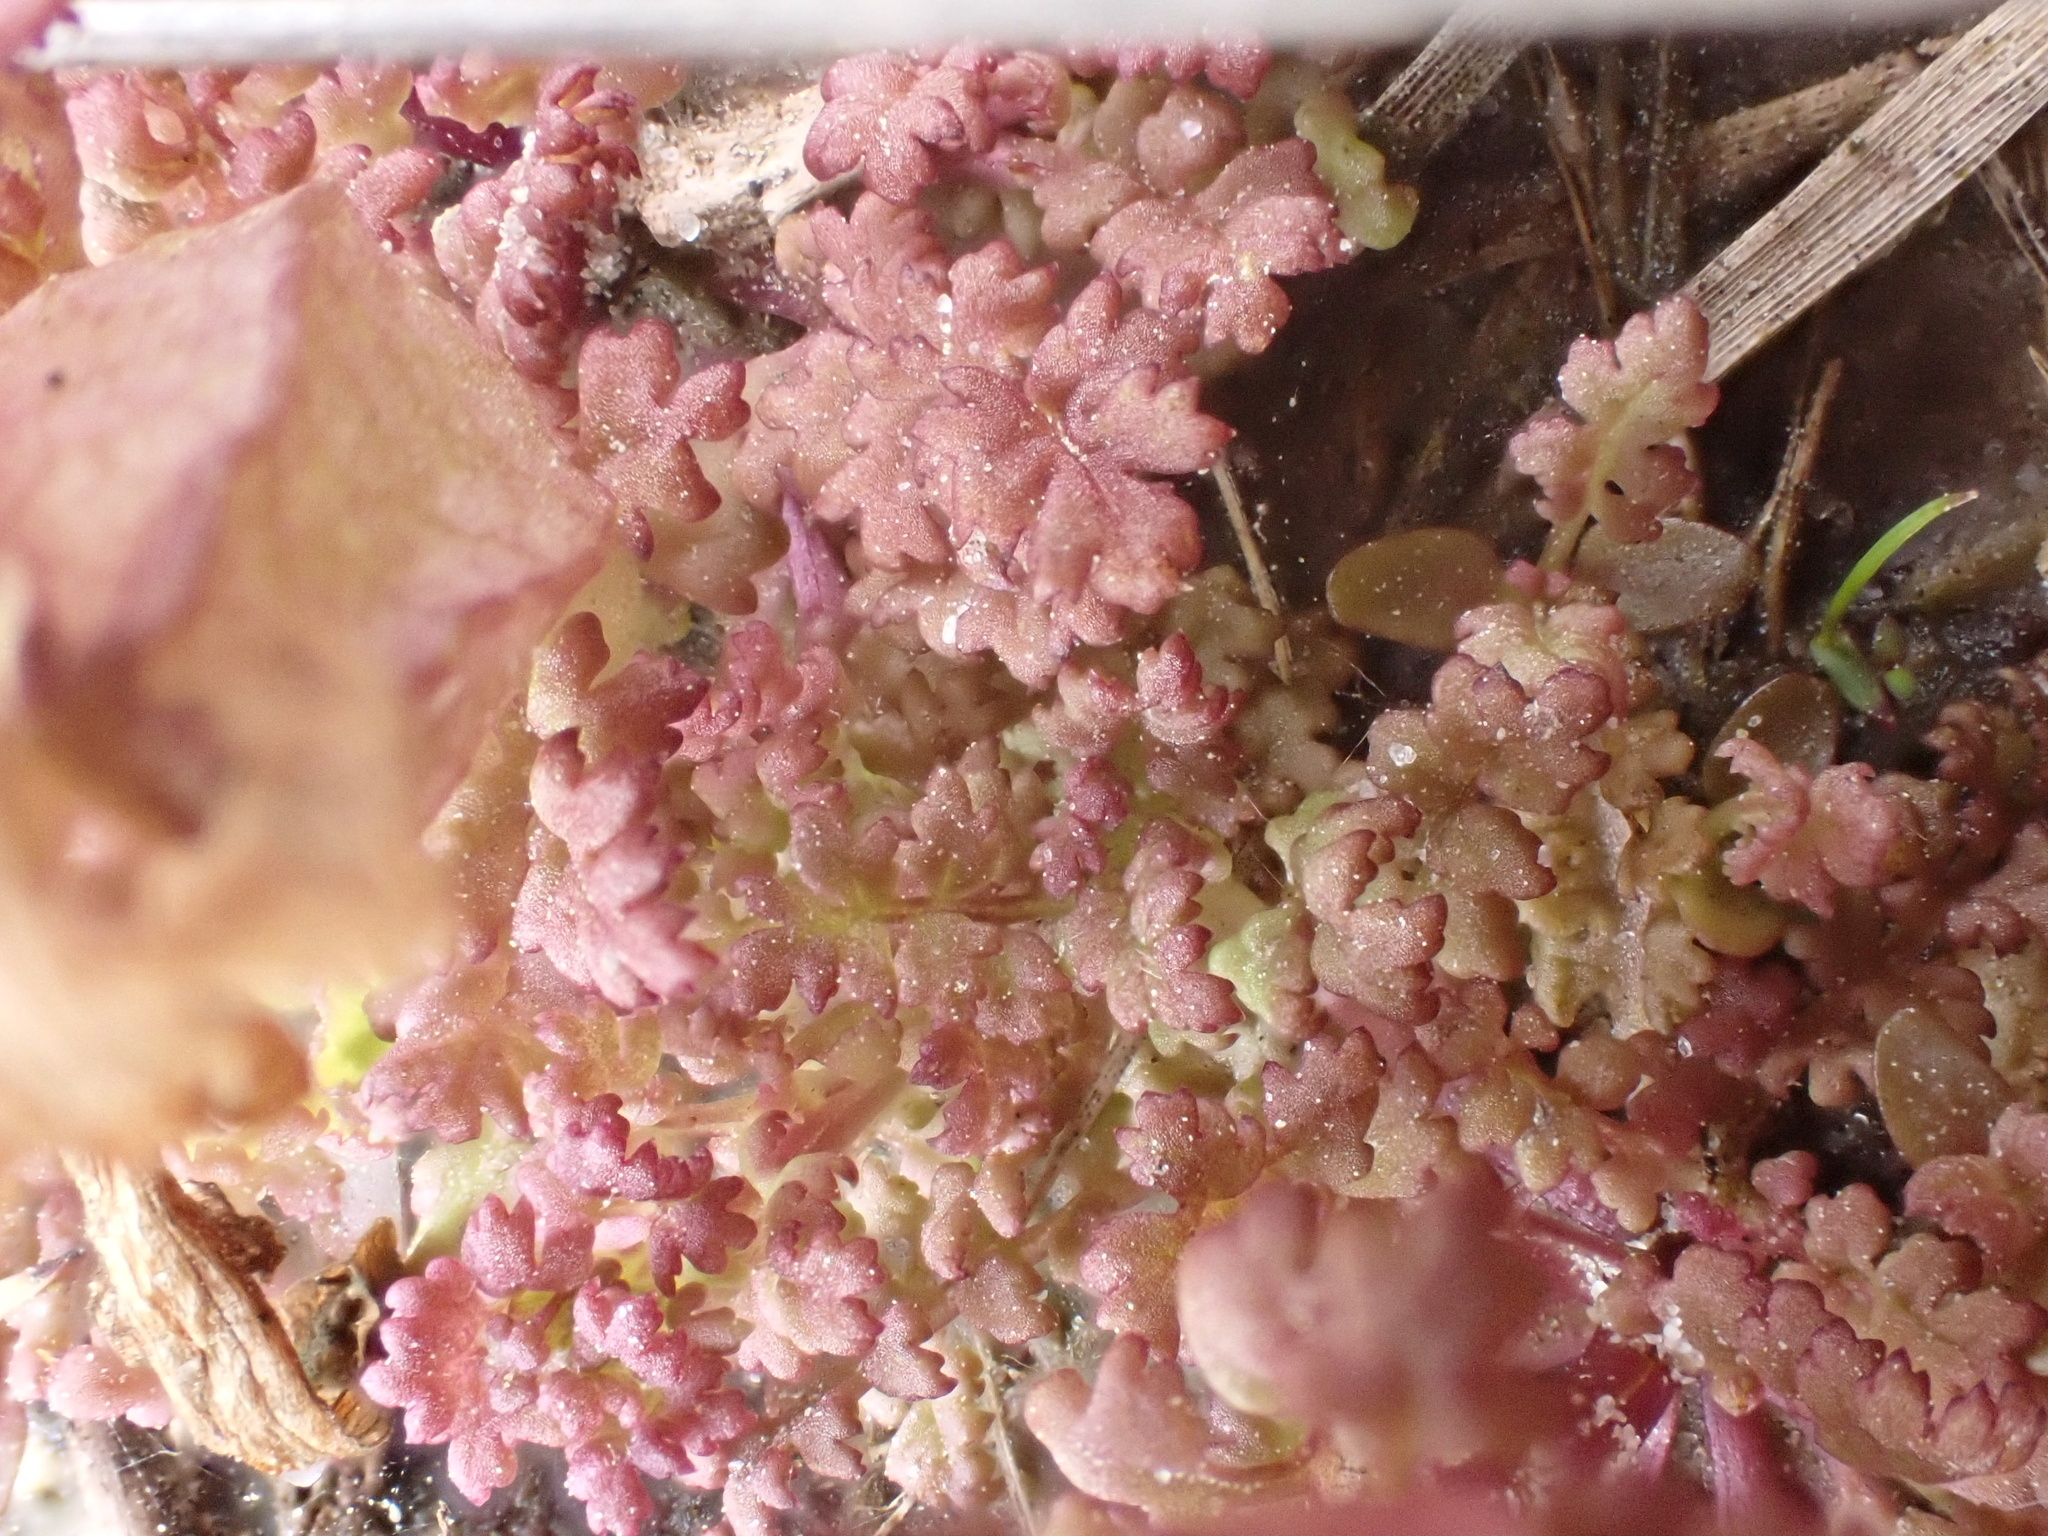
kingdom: Plantae
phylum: Tracheophyta
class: Magnoliopsida
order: Lamiales
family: Orobanchaceae
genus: Pedicularis
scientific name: Pedicularis sylvatica
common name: Lousewort
